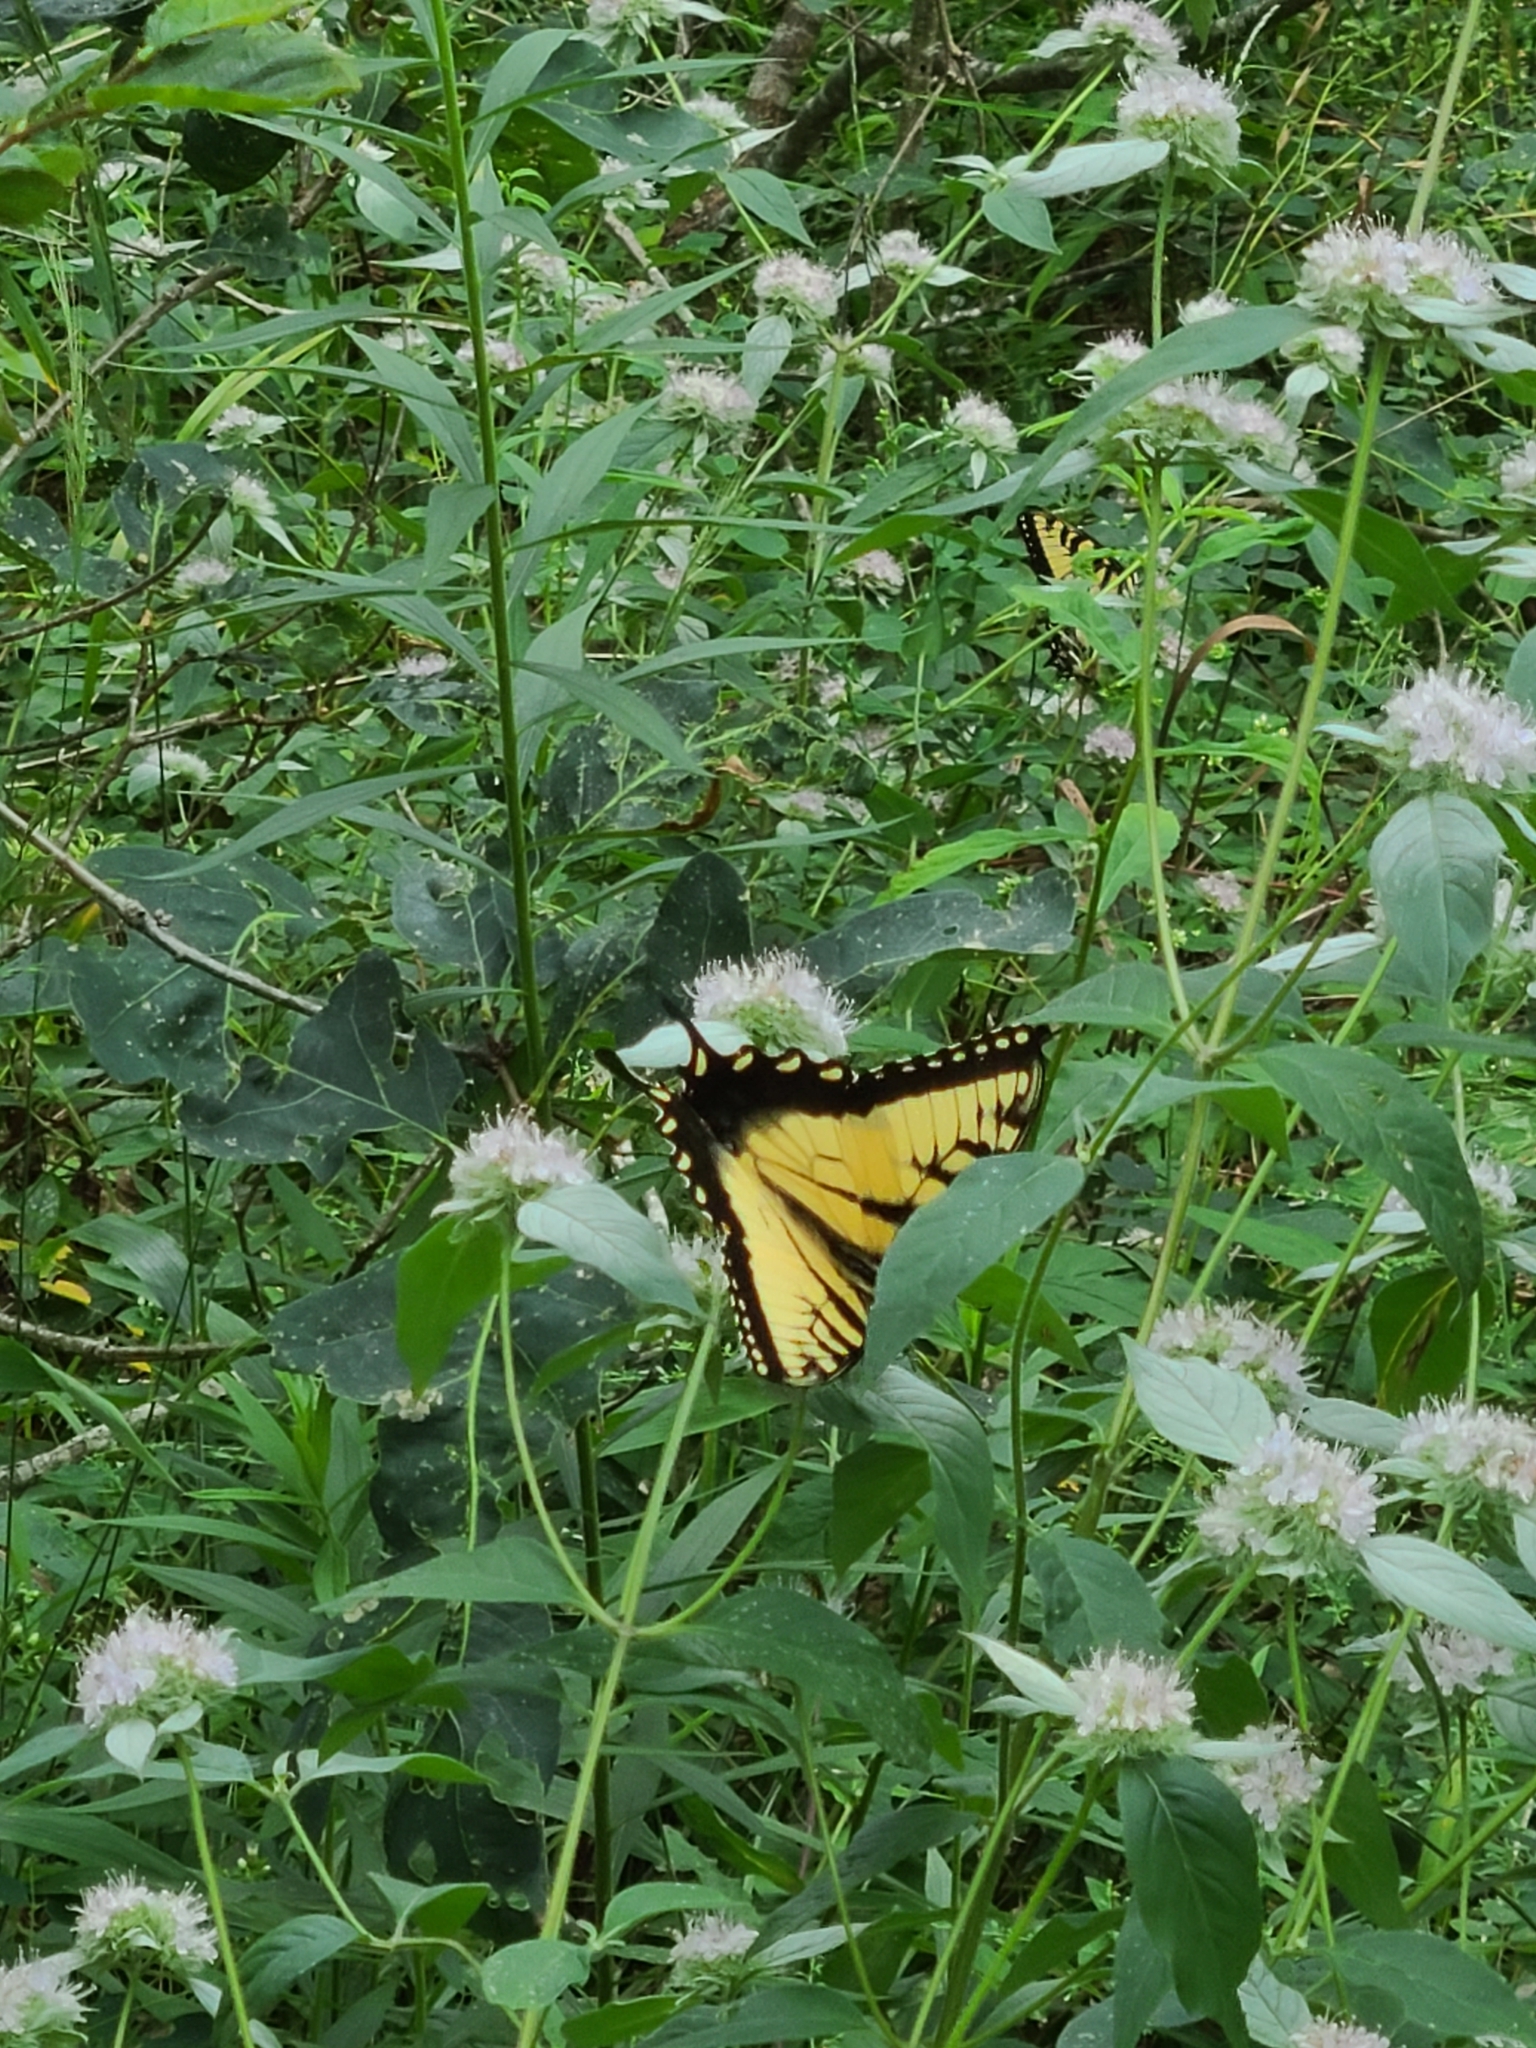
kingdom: Animalia
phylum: Arthropoda
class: Insecta
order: Lepidoptera
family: Papilionidae
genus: Papilio
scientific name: Papilio glaucus
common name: Tiger swallowtail
